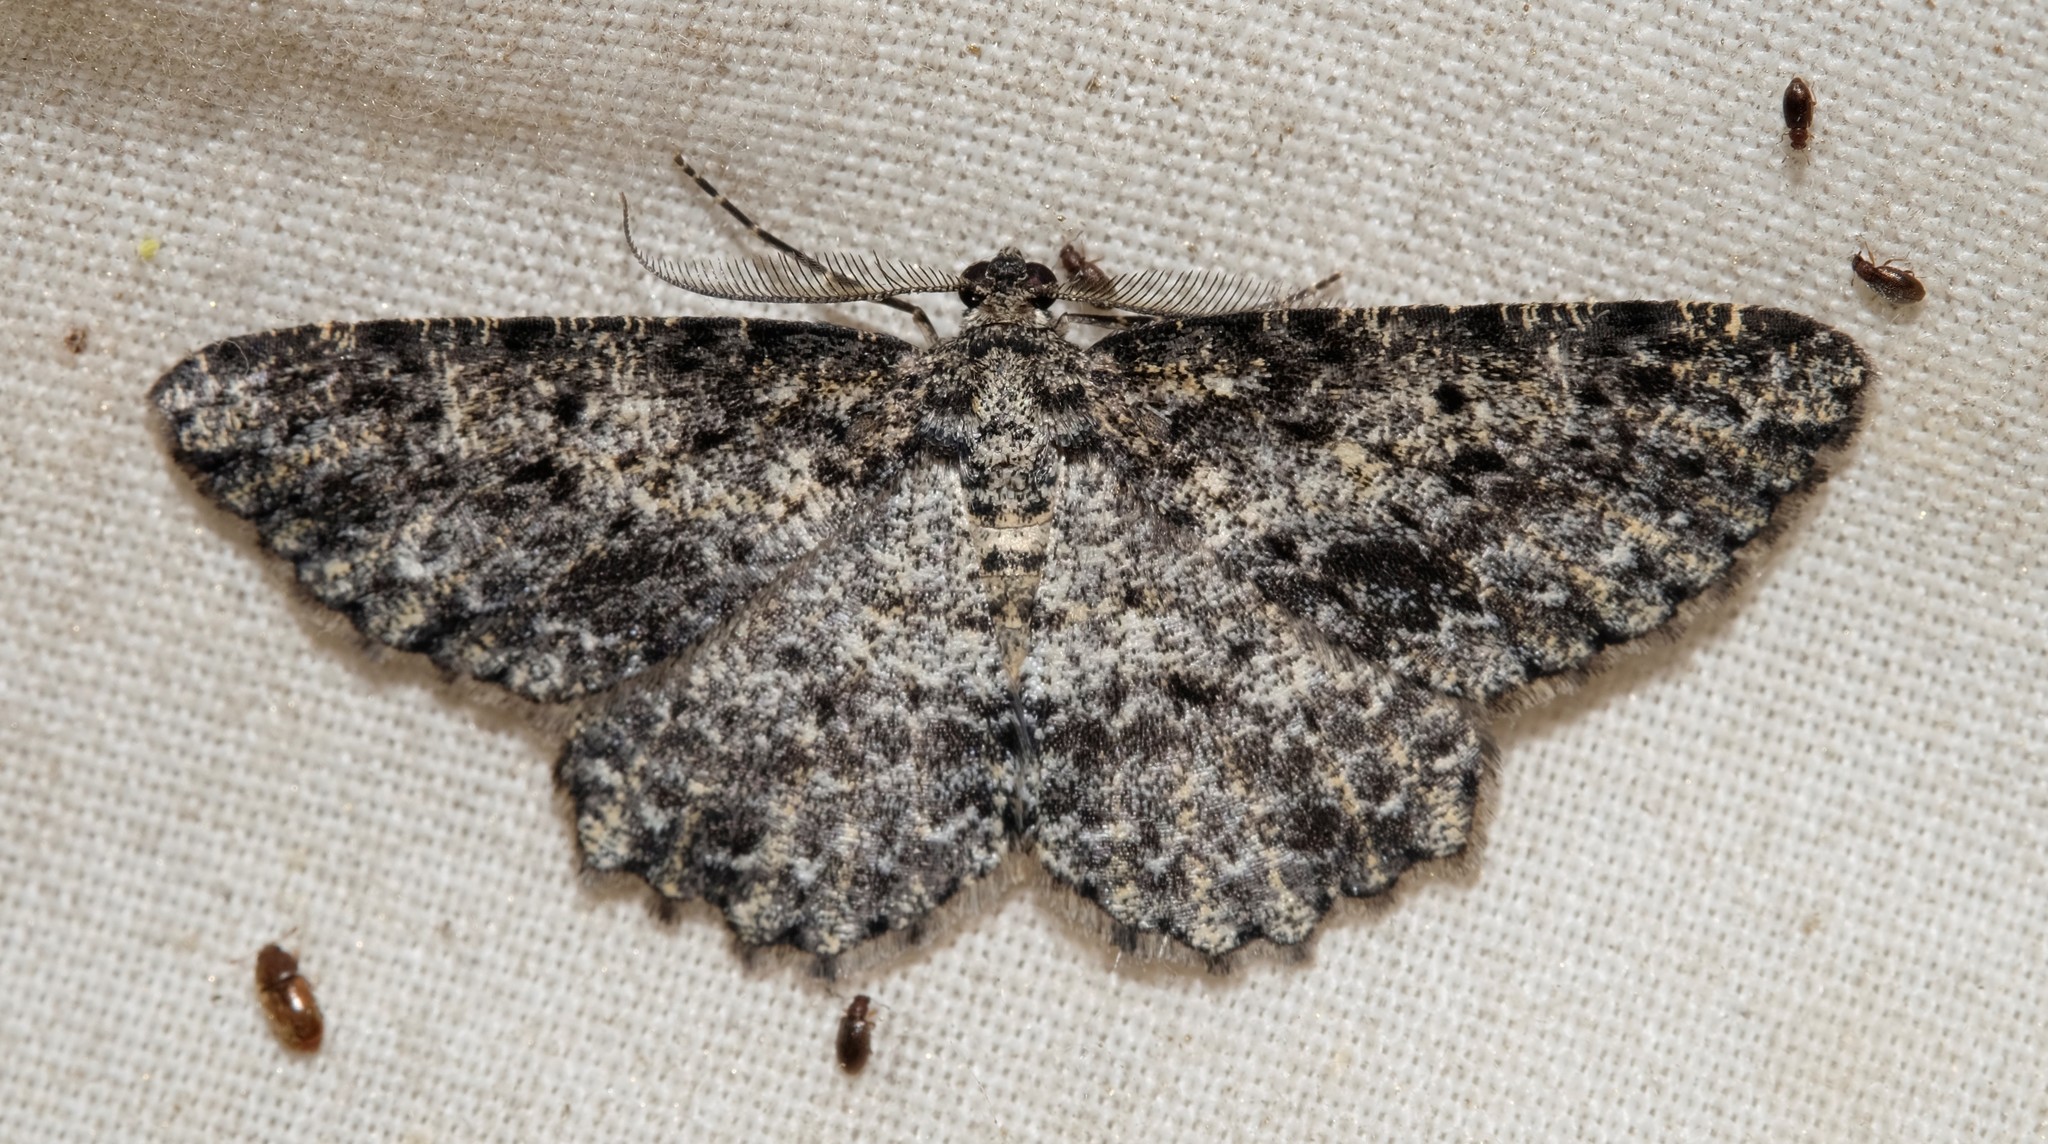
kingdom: Animalia
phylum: Arthropoda
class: Insecta
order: Lepidoptera
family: Geometridae
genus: Thallogama
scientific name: Thallogama nigraria
